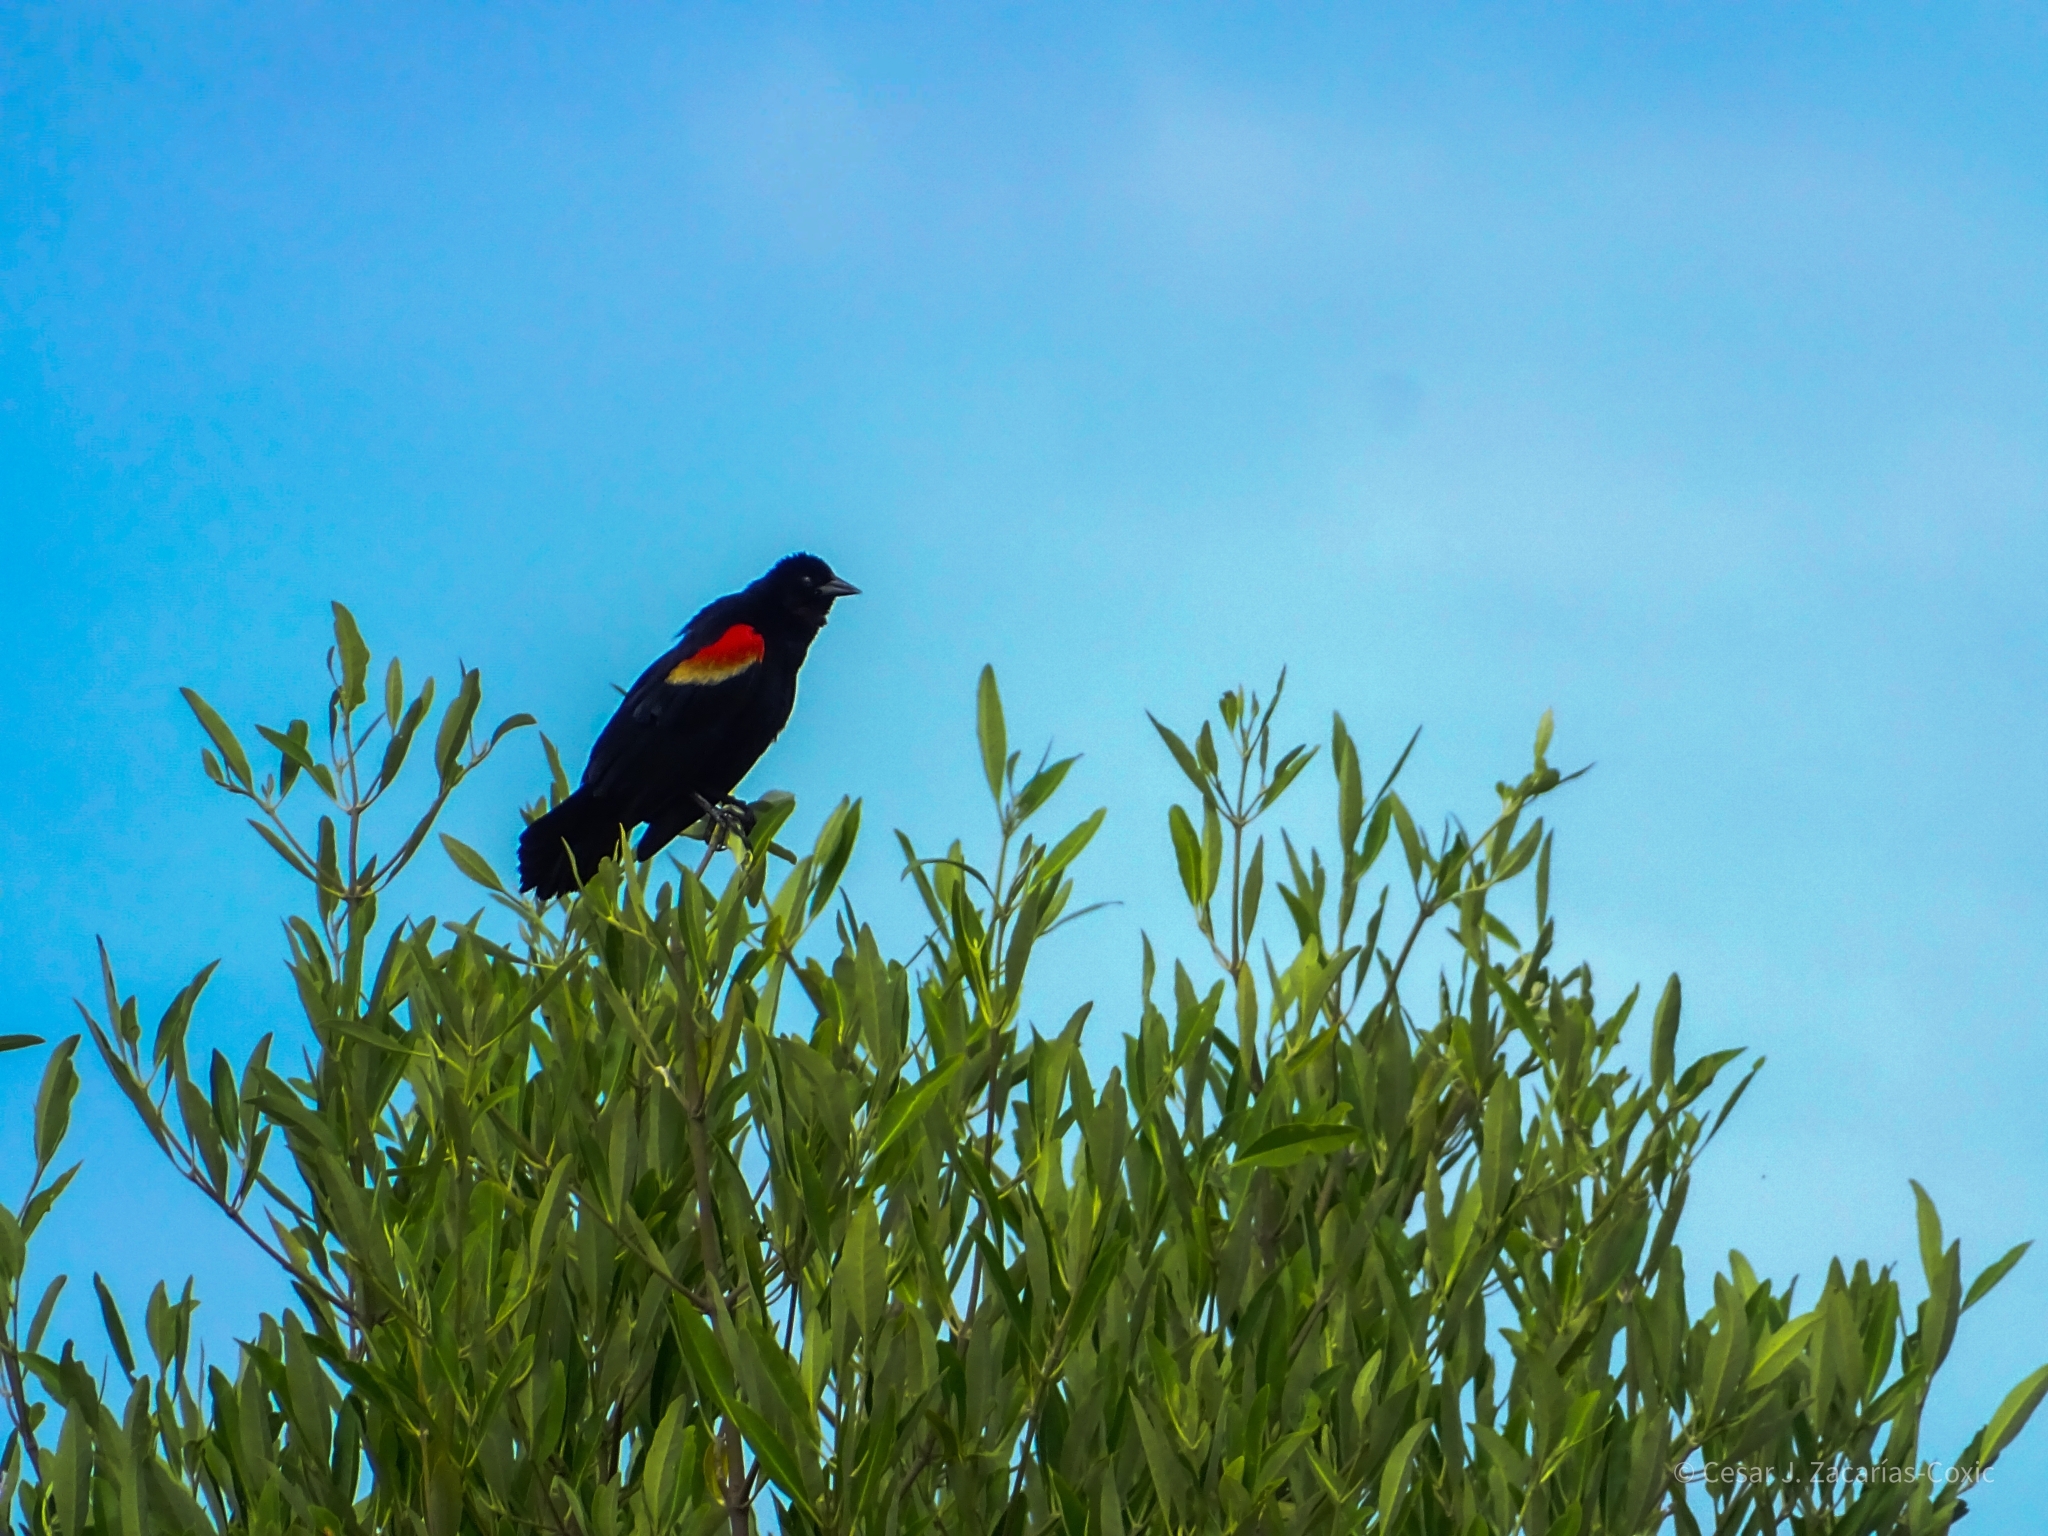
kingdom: Animalia
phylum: Chordata
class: Aves
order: Passeriformes
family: Icteridae
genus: Agelaius
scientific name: Agelaius phoeniceus
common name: Red-winged blackbird
